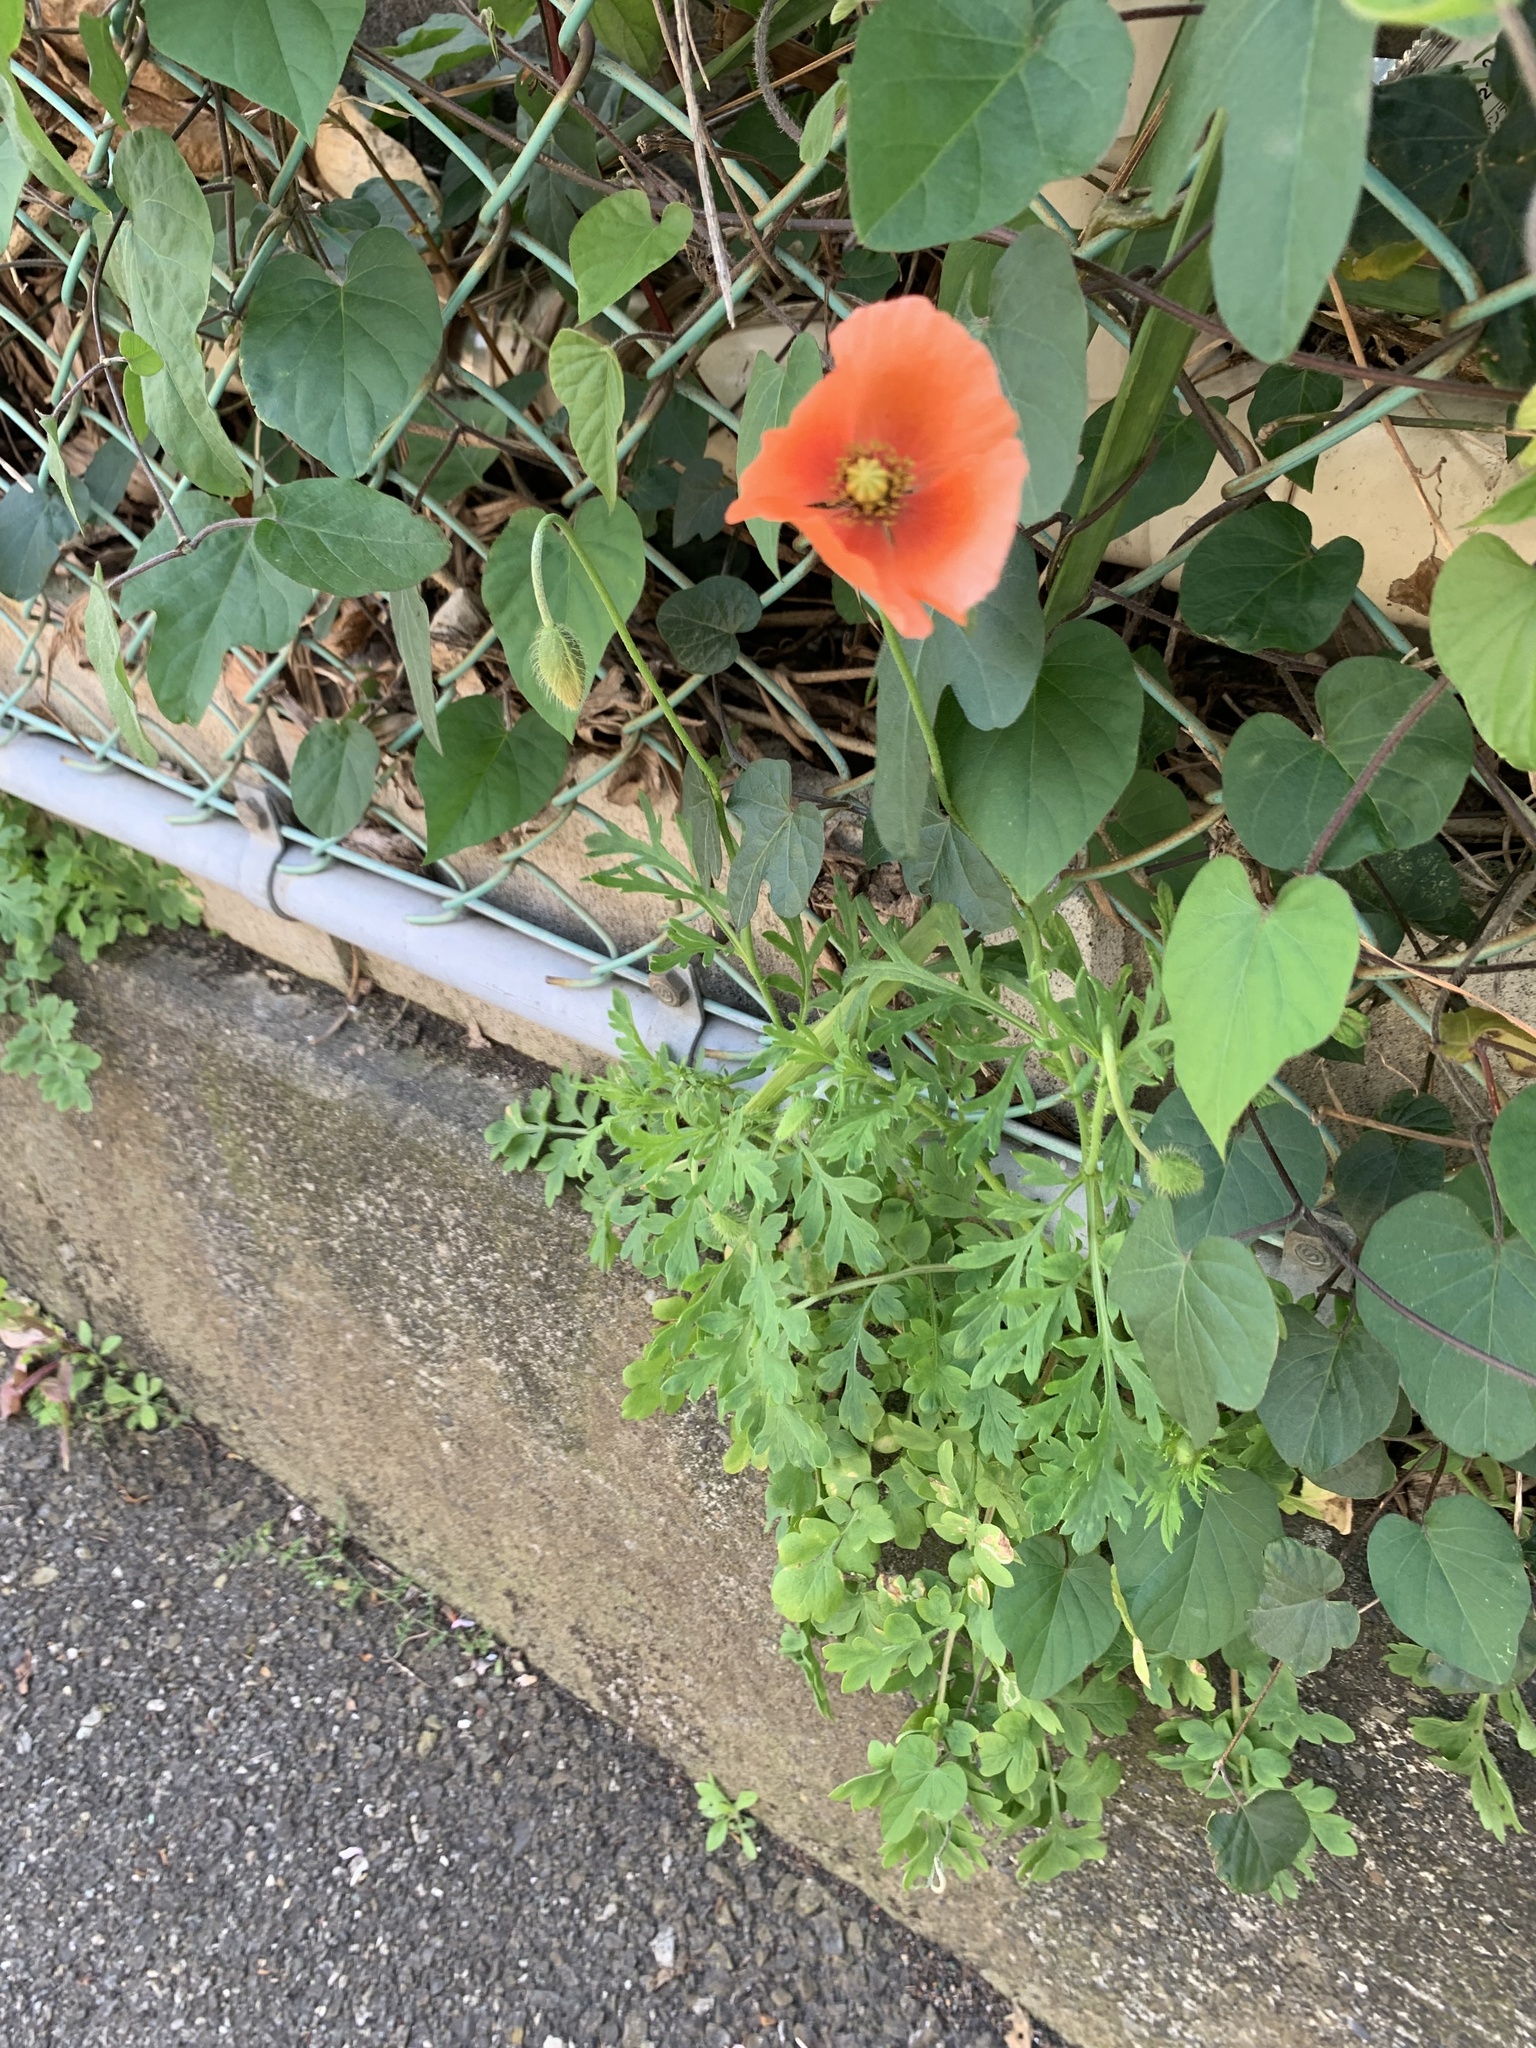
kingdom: Plantae
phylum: Tracheophyta
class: Magnoliopsida
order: Ranunculales
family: Papaveraceae
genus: Papaver
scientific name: Papaver dubium
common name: Long-headed poppy
